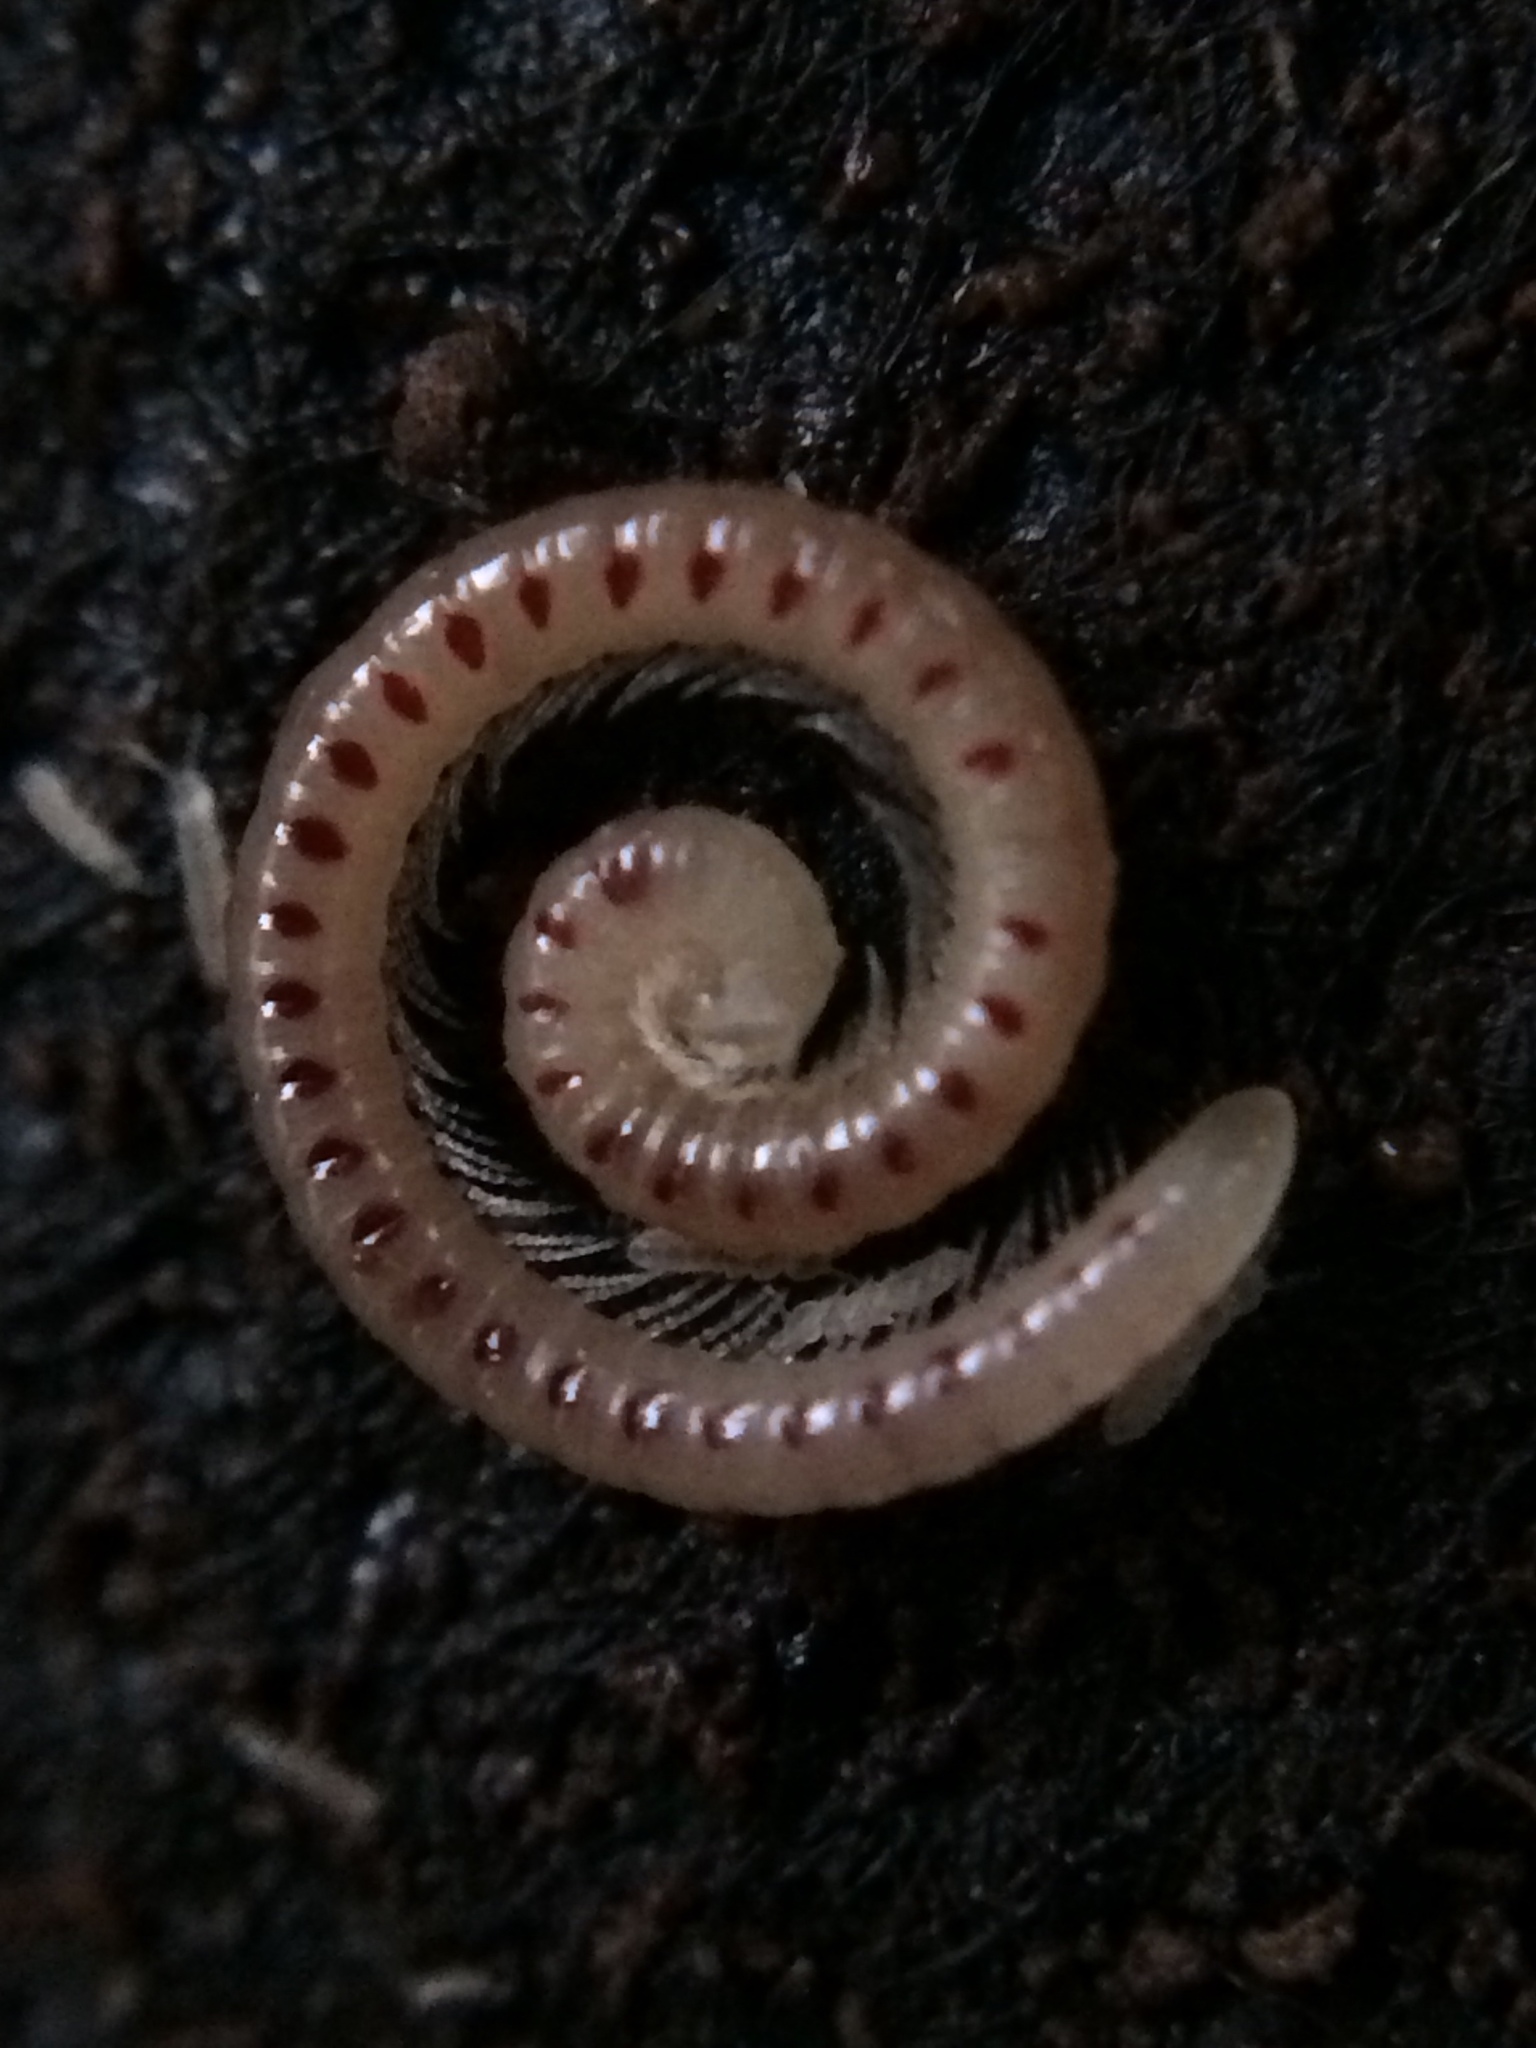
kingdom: Animalia
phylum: Arthropoda
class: Diplopoda
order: Julida
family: Blaniulidae
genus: Blaniulus
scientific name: Blaniulus guttulatus
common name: Spotted snake millipede
